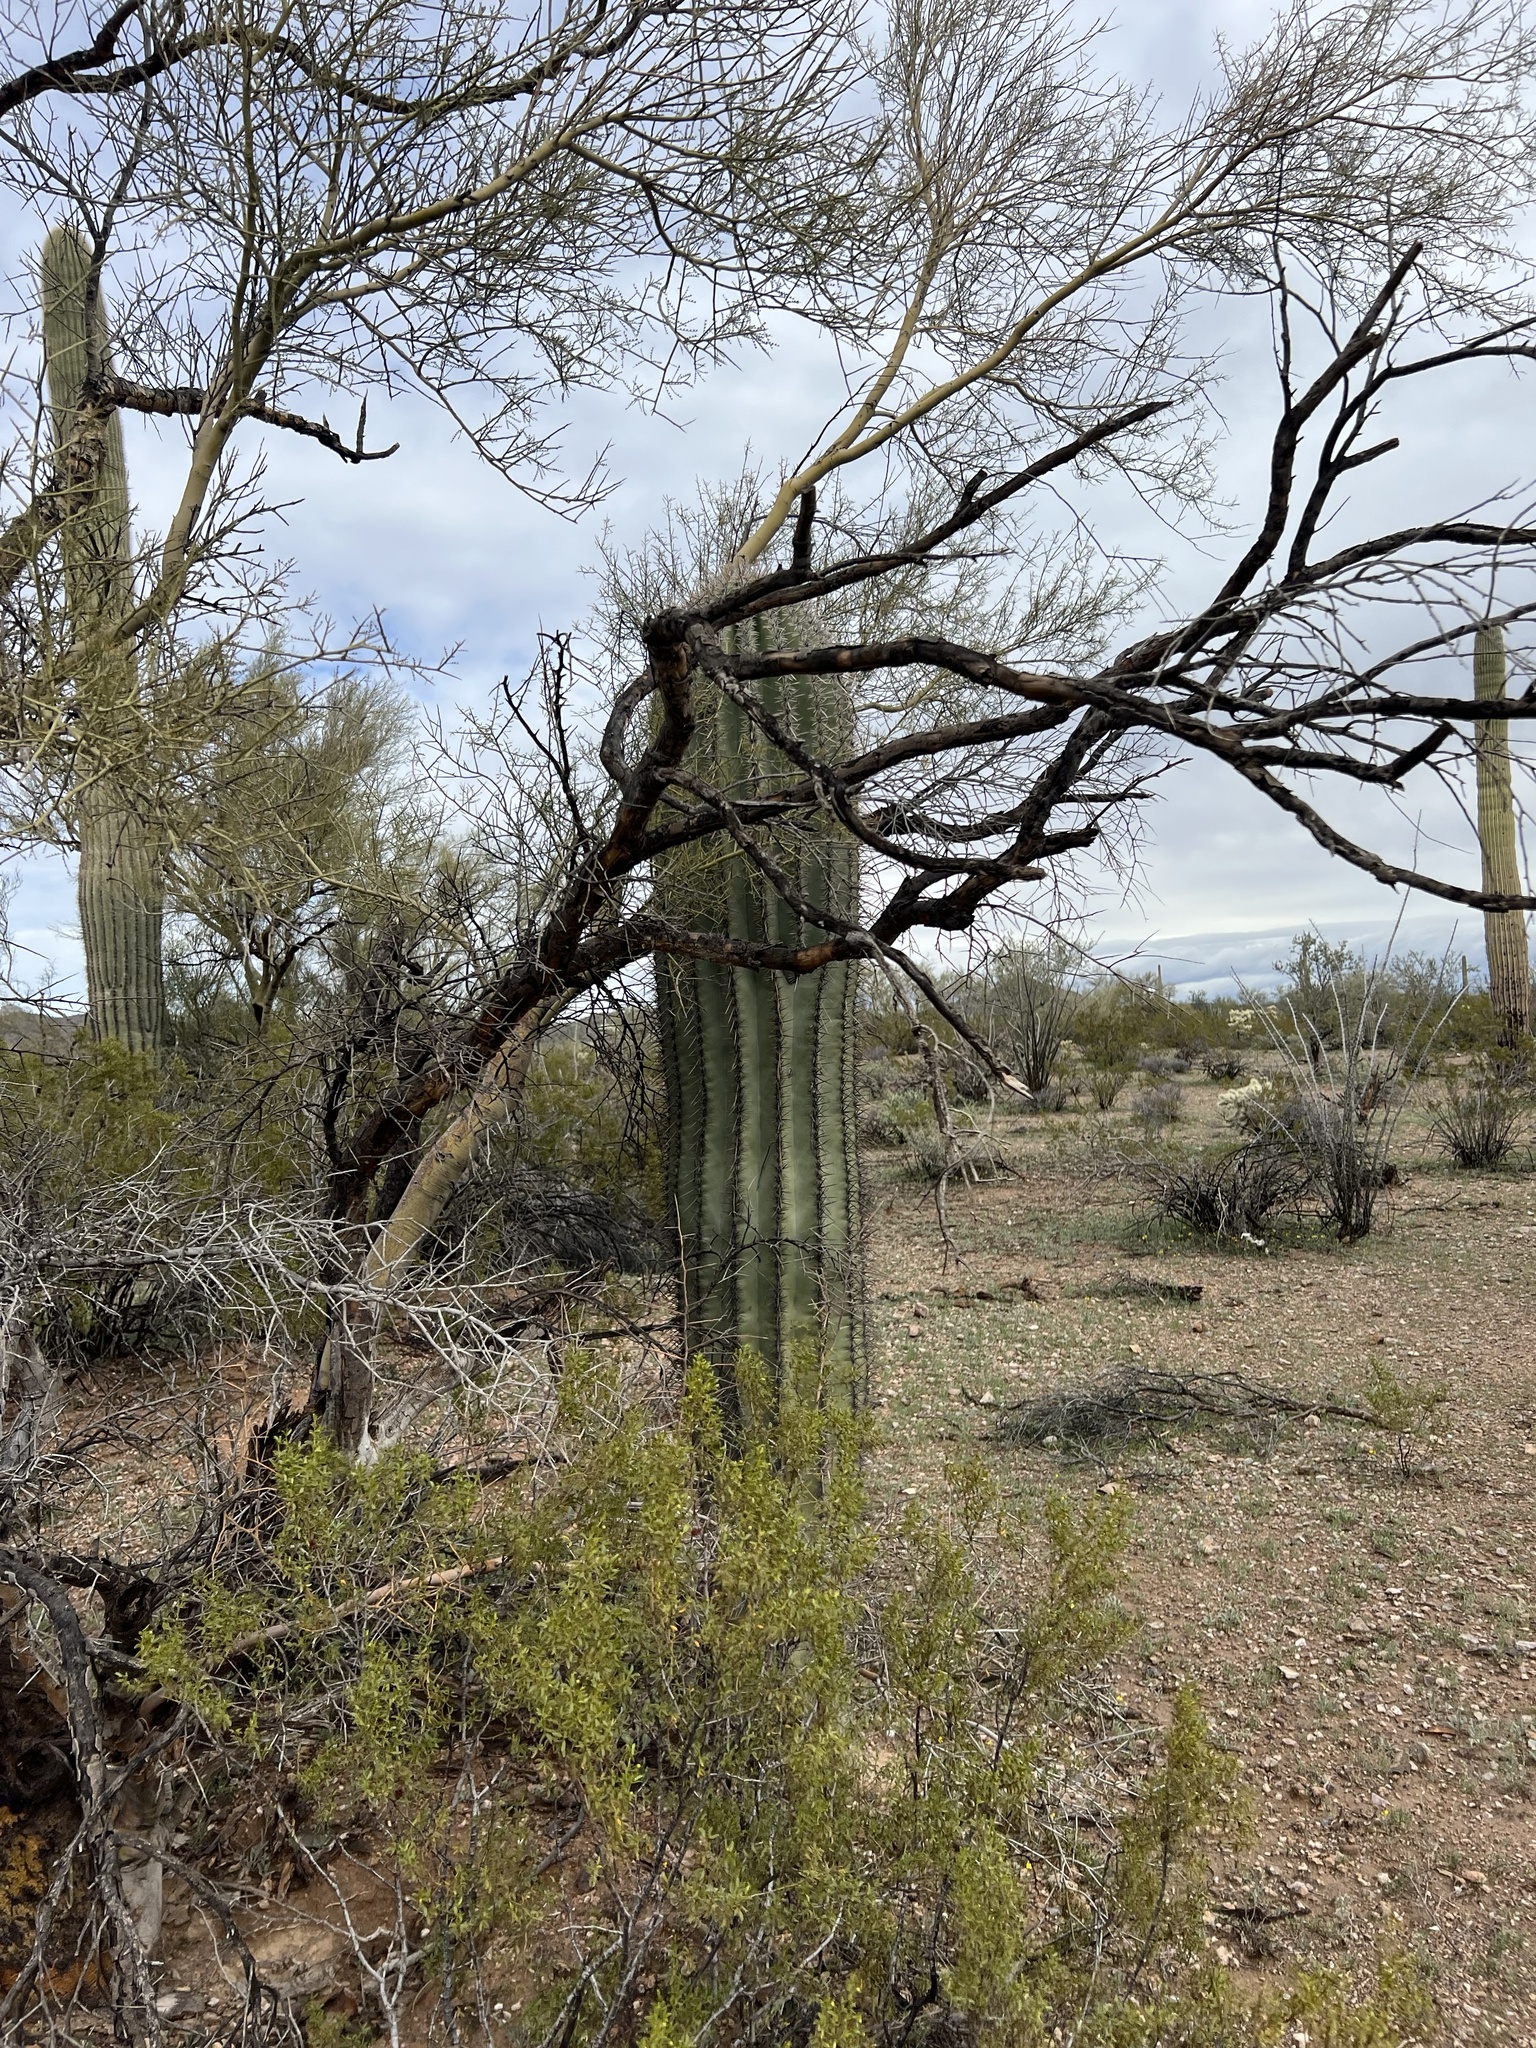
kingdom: Plantae
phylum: Tracheophyta
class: Magnoliopsida
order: Caryophyllales
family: Cactaceae
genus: Carnegiea
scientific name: Carnegiea gigantea
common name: Saguaro
